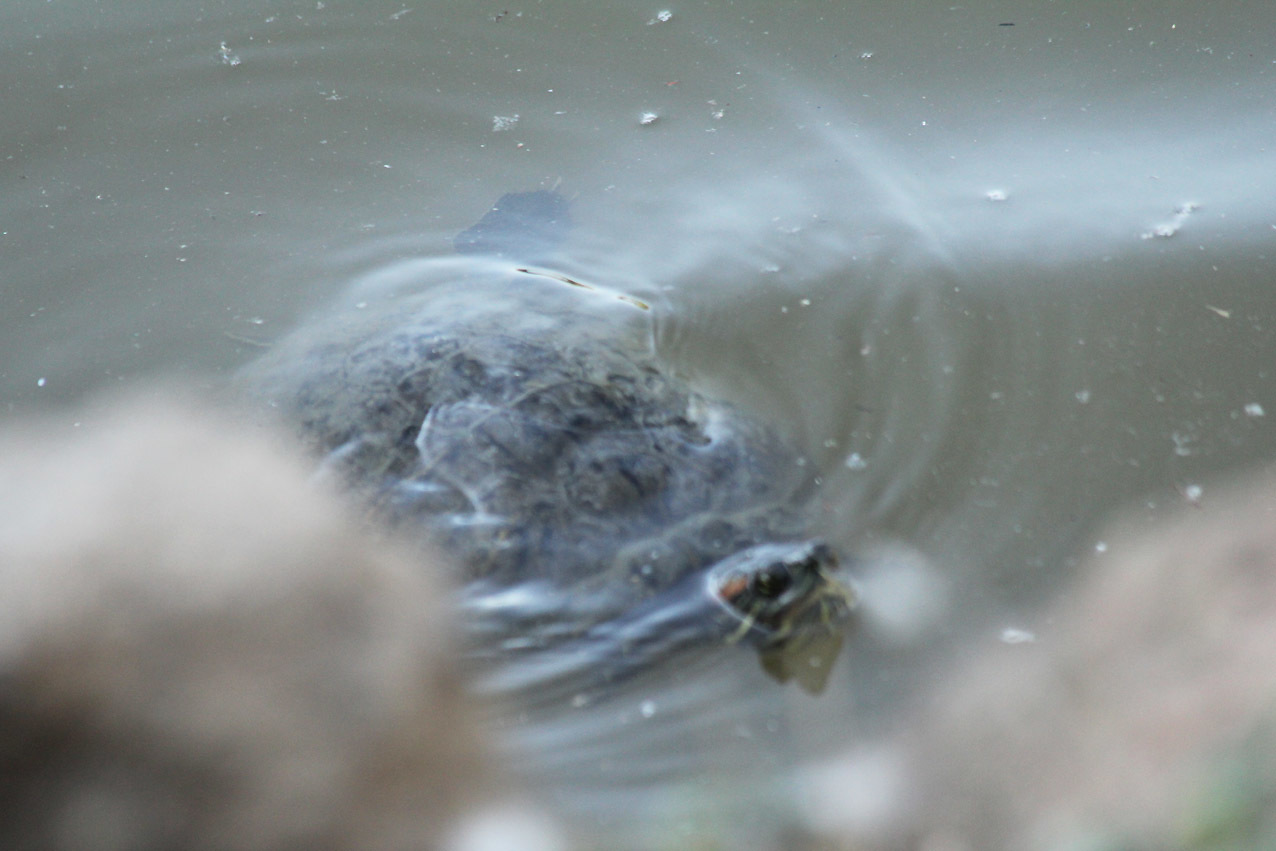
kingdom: Animalia
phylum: Chordata
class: Testudines
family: Emydidae
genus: Trachemys
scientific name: Trachemys scripta
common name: Slider
